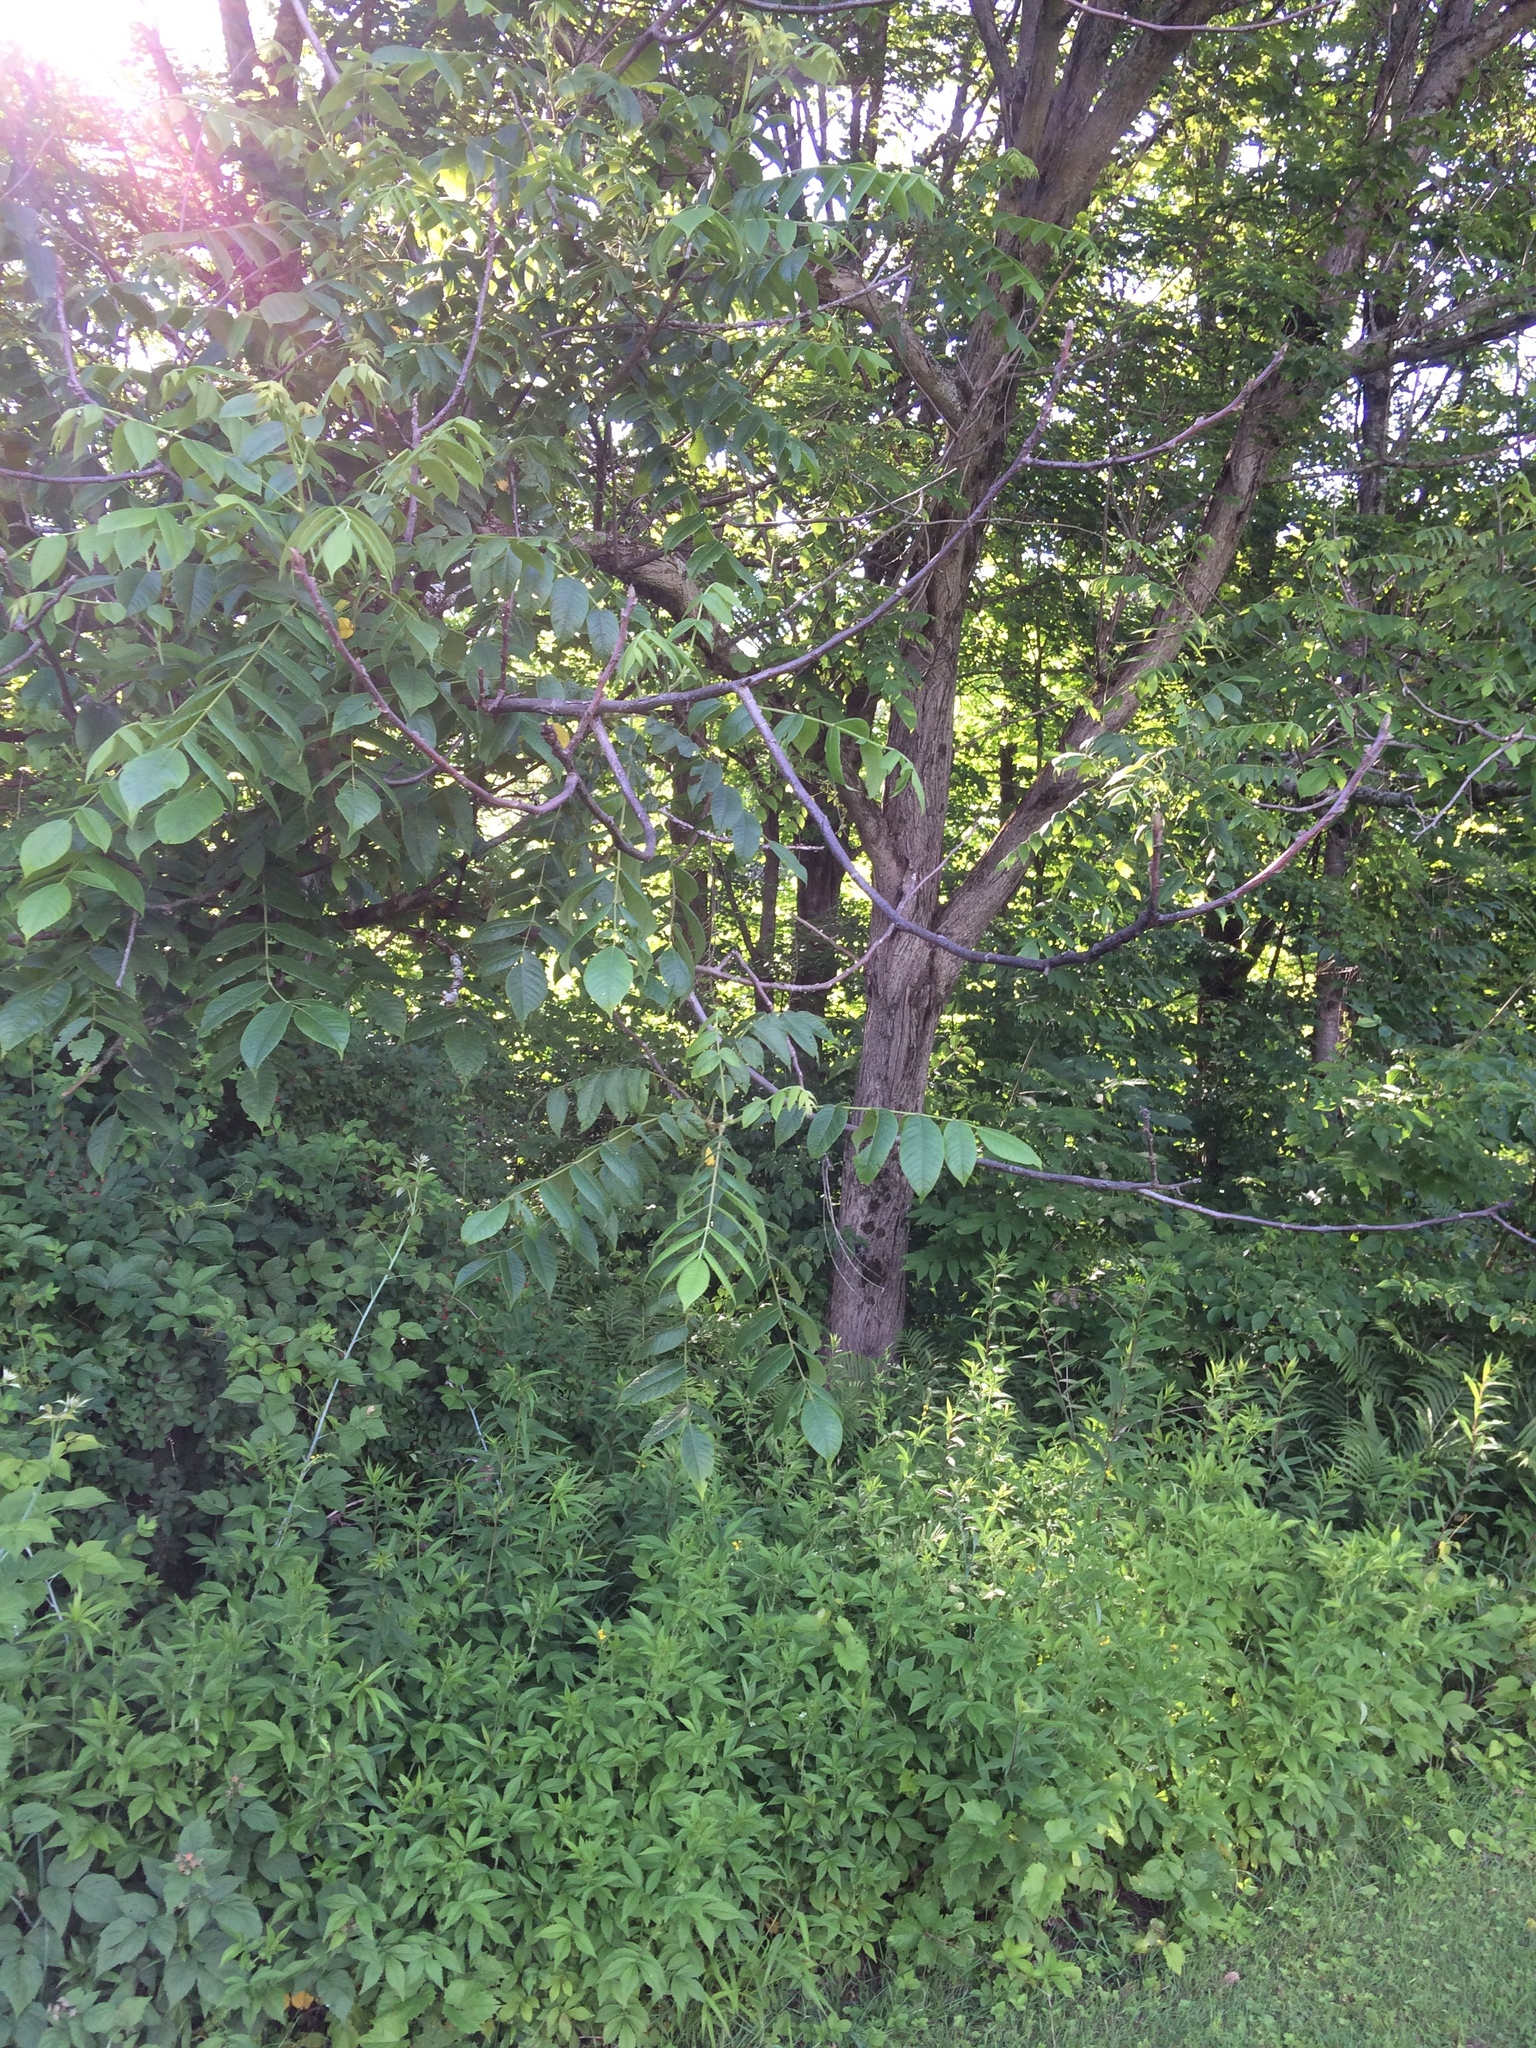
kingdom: Plantae
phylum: Tracheophyta
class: Magnoliopsida
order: Fagales
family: Juglandaceae
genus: Juglans
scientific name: Juglans cinerea
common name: Butternut
